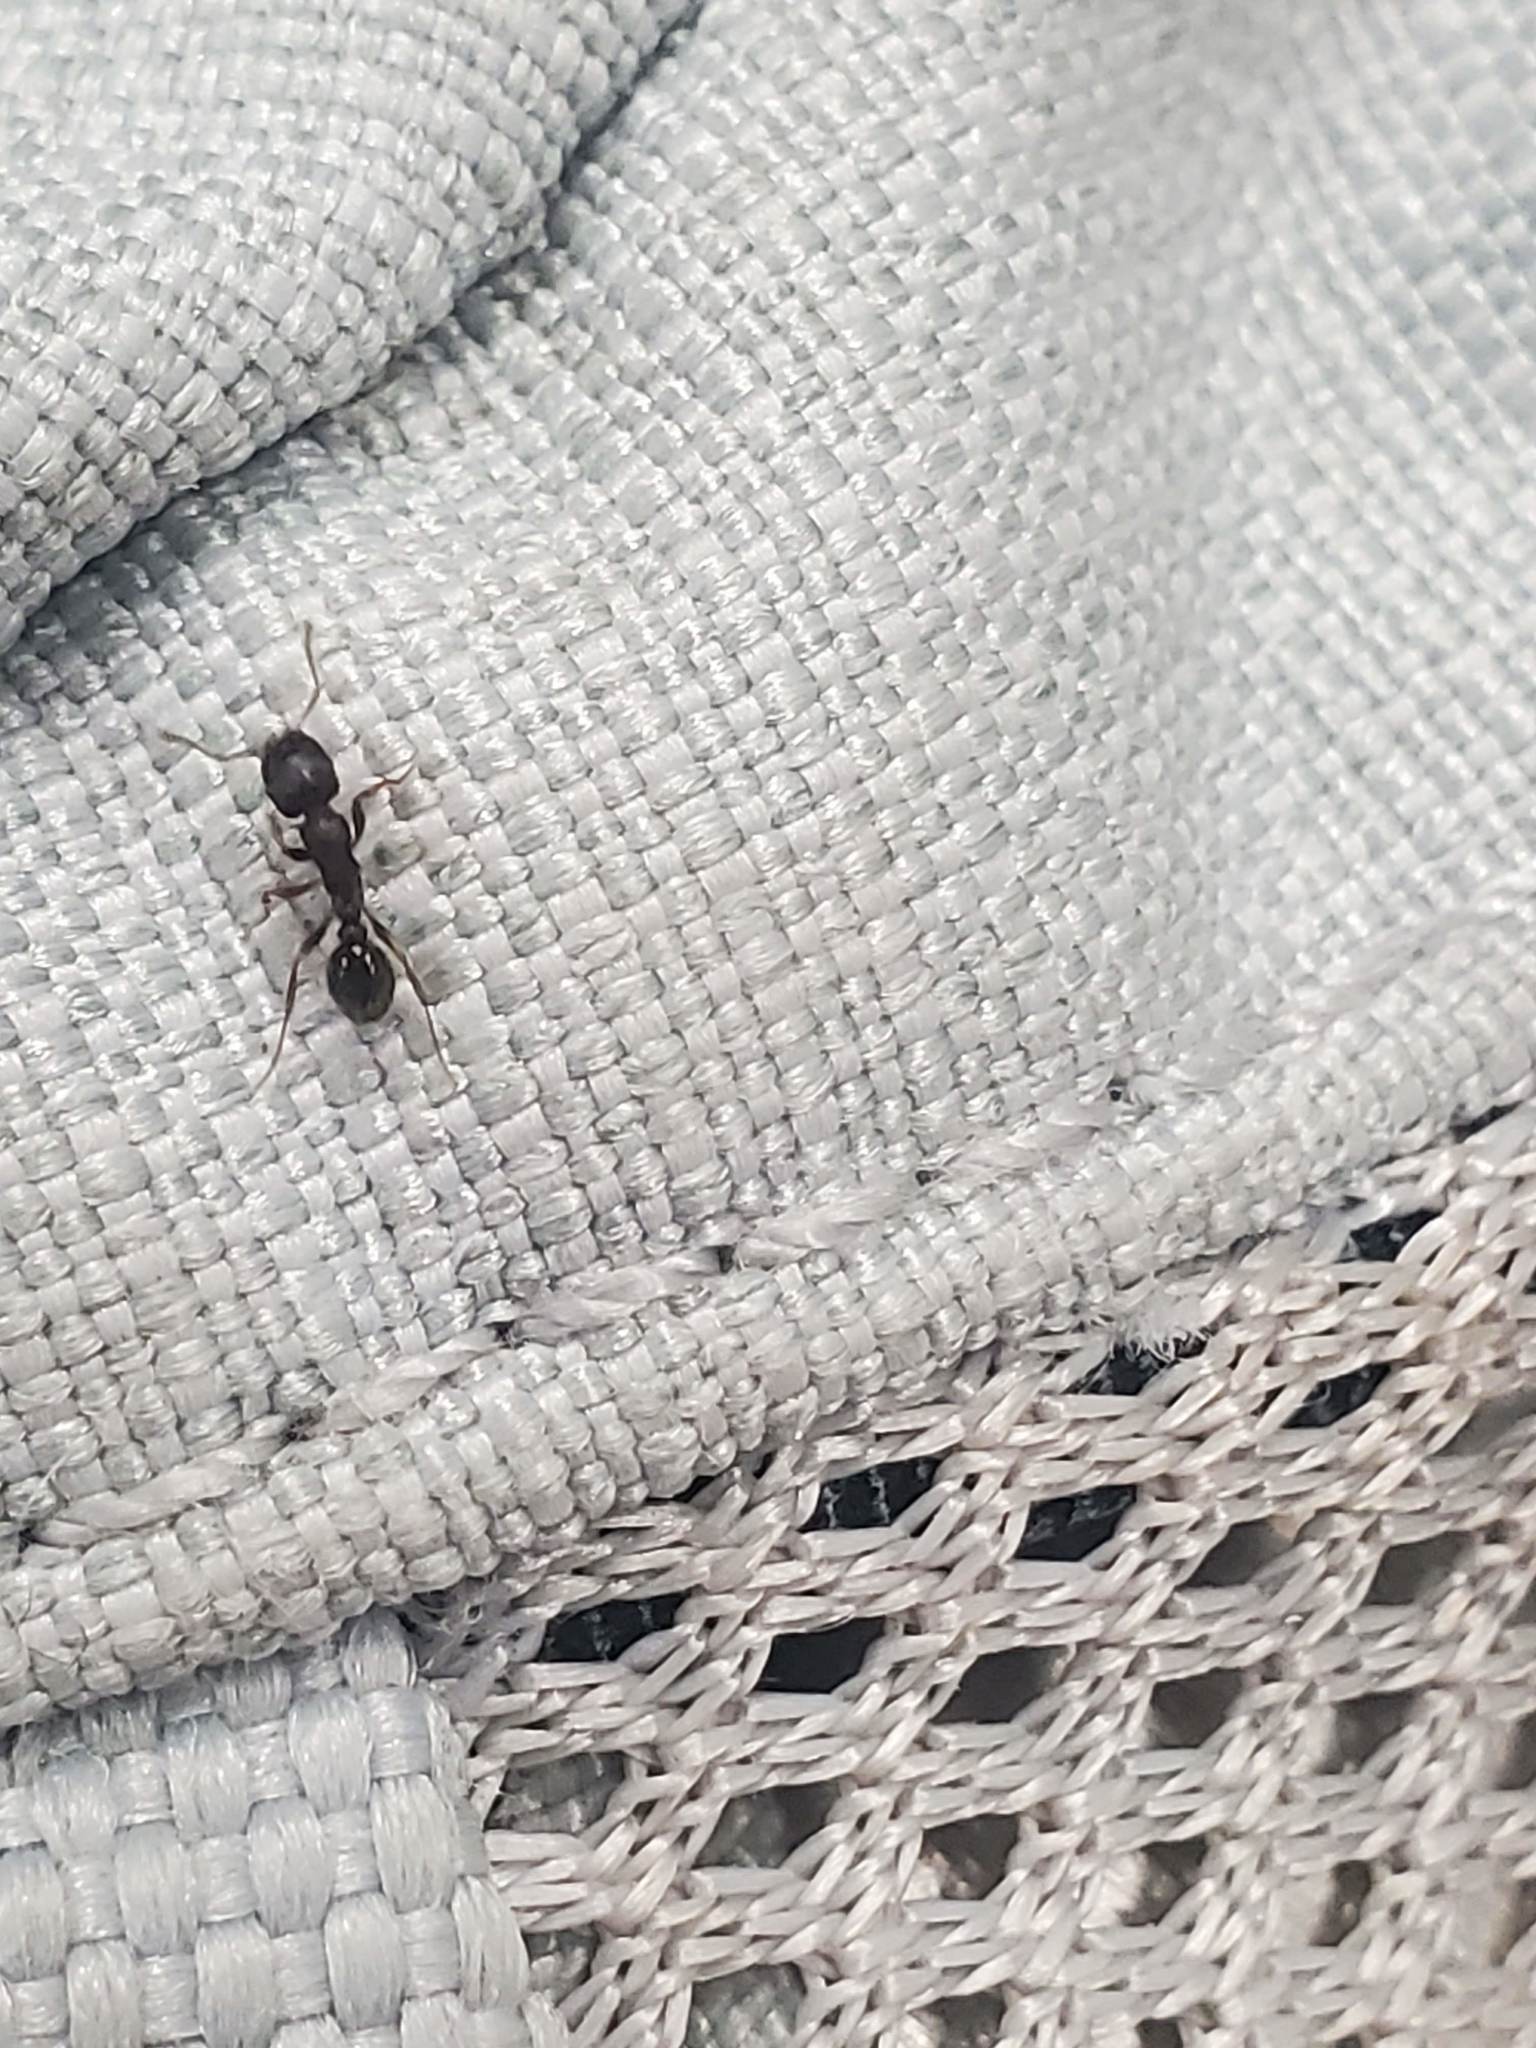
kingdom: Animalia
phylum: Arthropoda
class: Insecta
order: Hymenoptera
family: Formicidae
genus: Tetramorium
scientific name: Tetramorium immigrans
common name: Pavement ant
